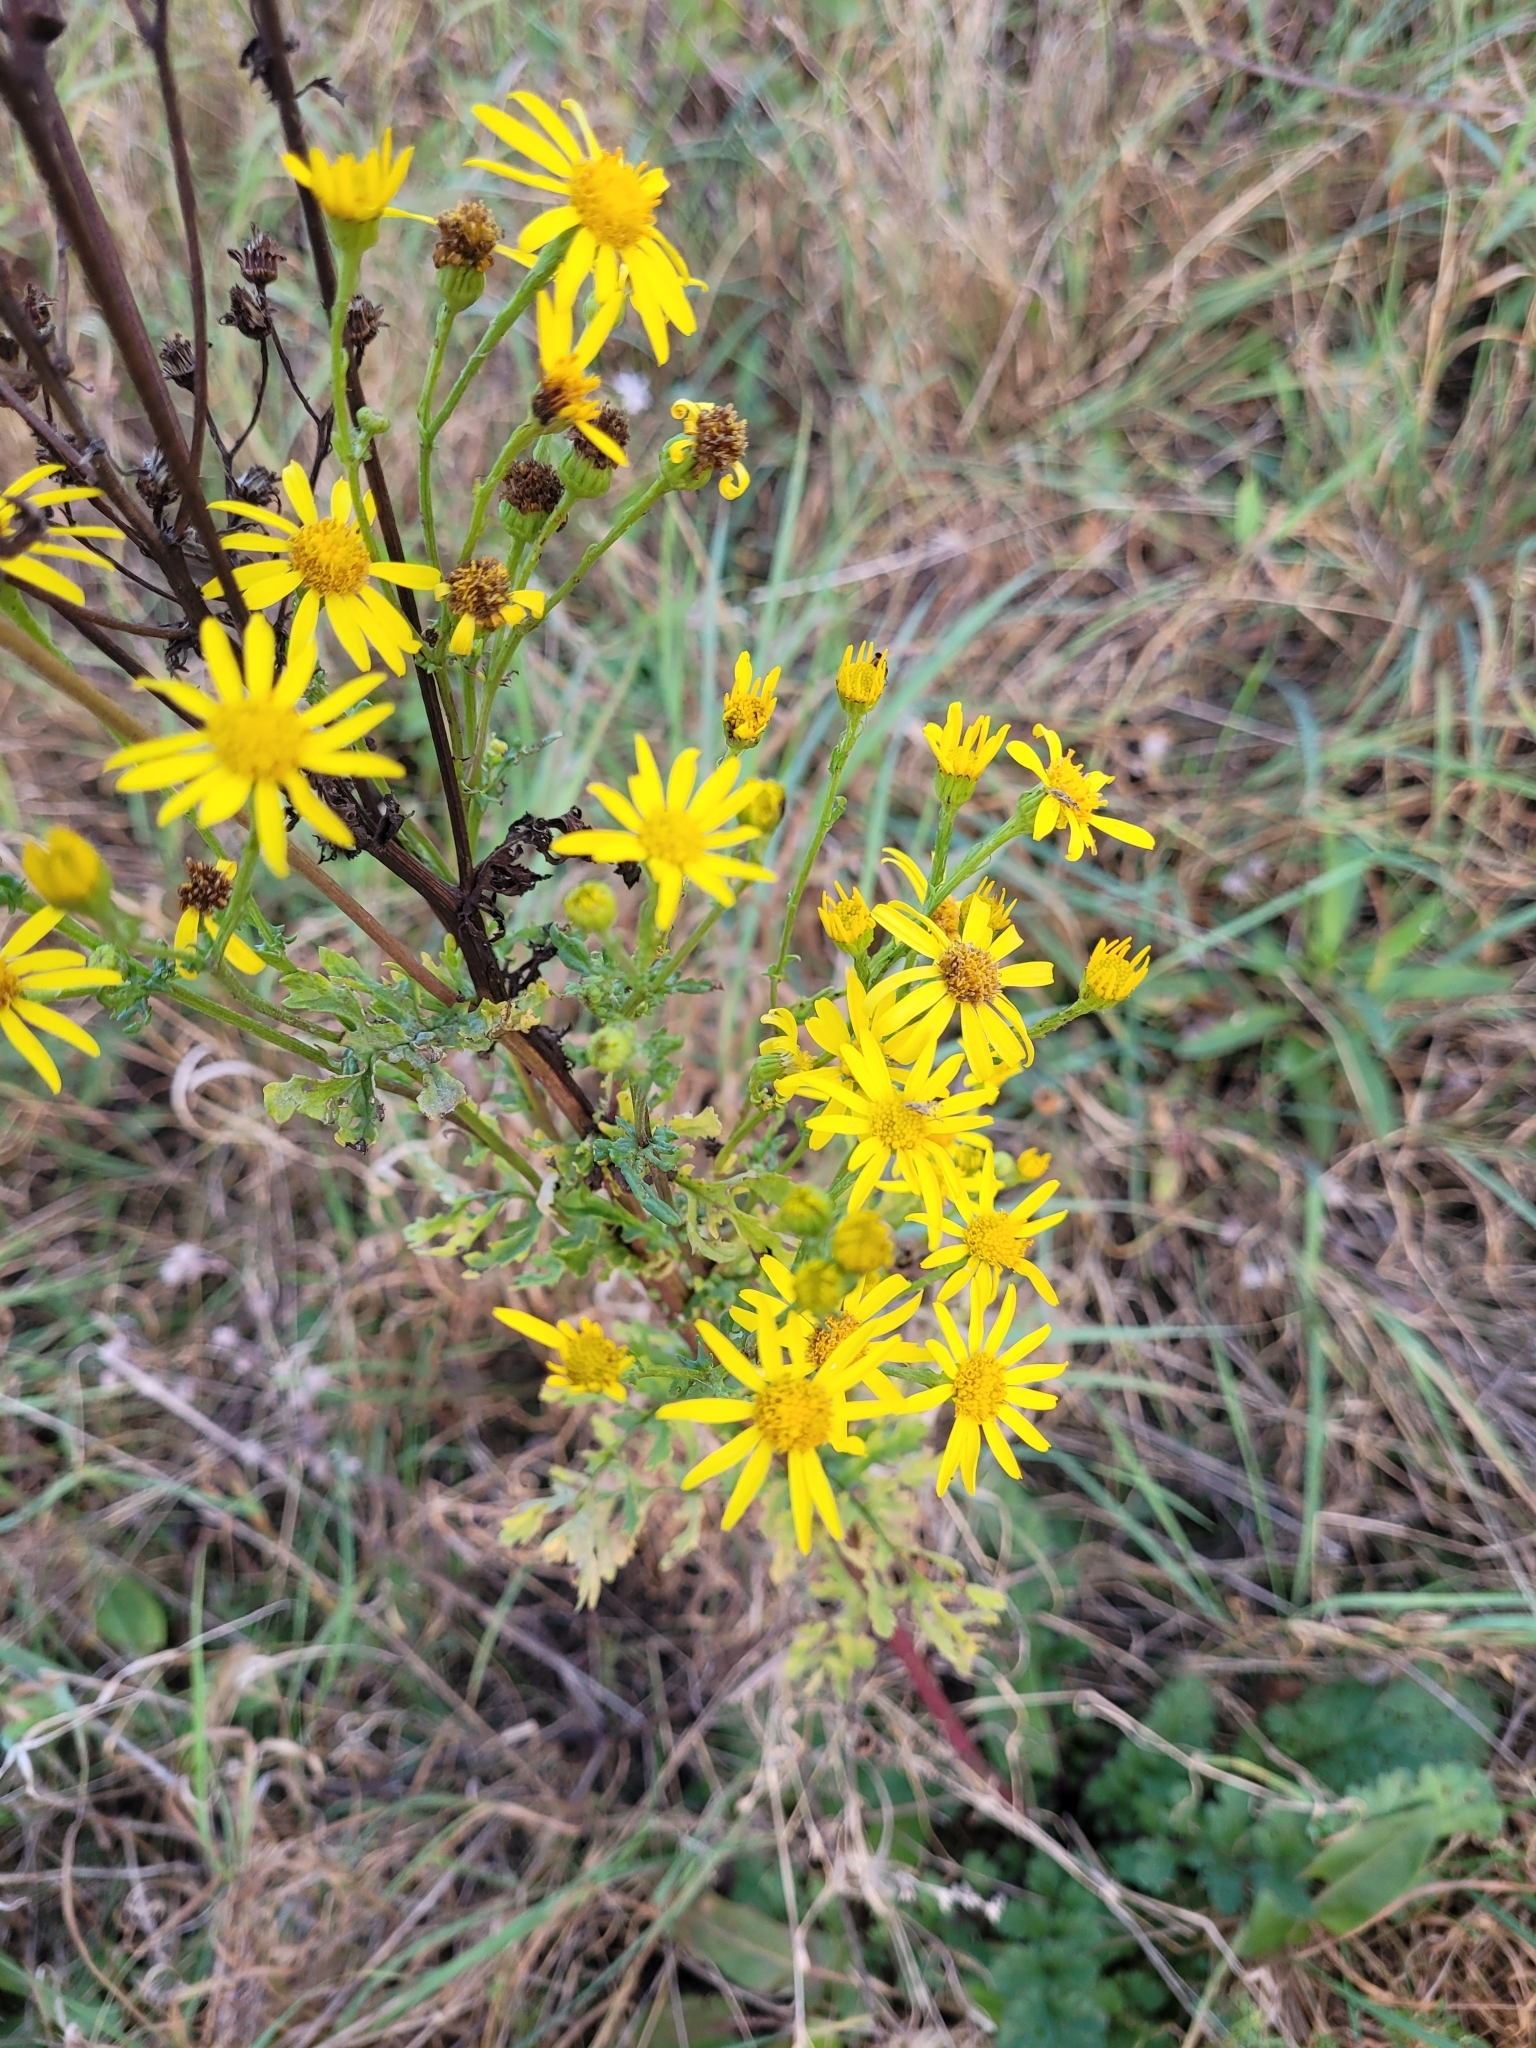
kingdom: Plantae
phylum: Tracheophyta
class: Magnoliopsida
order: Asterales
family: Asteraceae
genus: Jacobaea
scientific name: Jacobaea vulgaris
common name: Stinking willie
